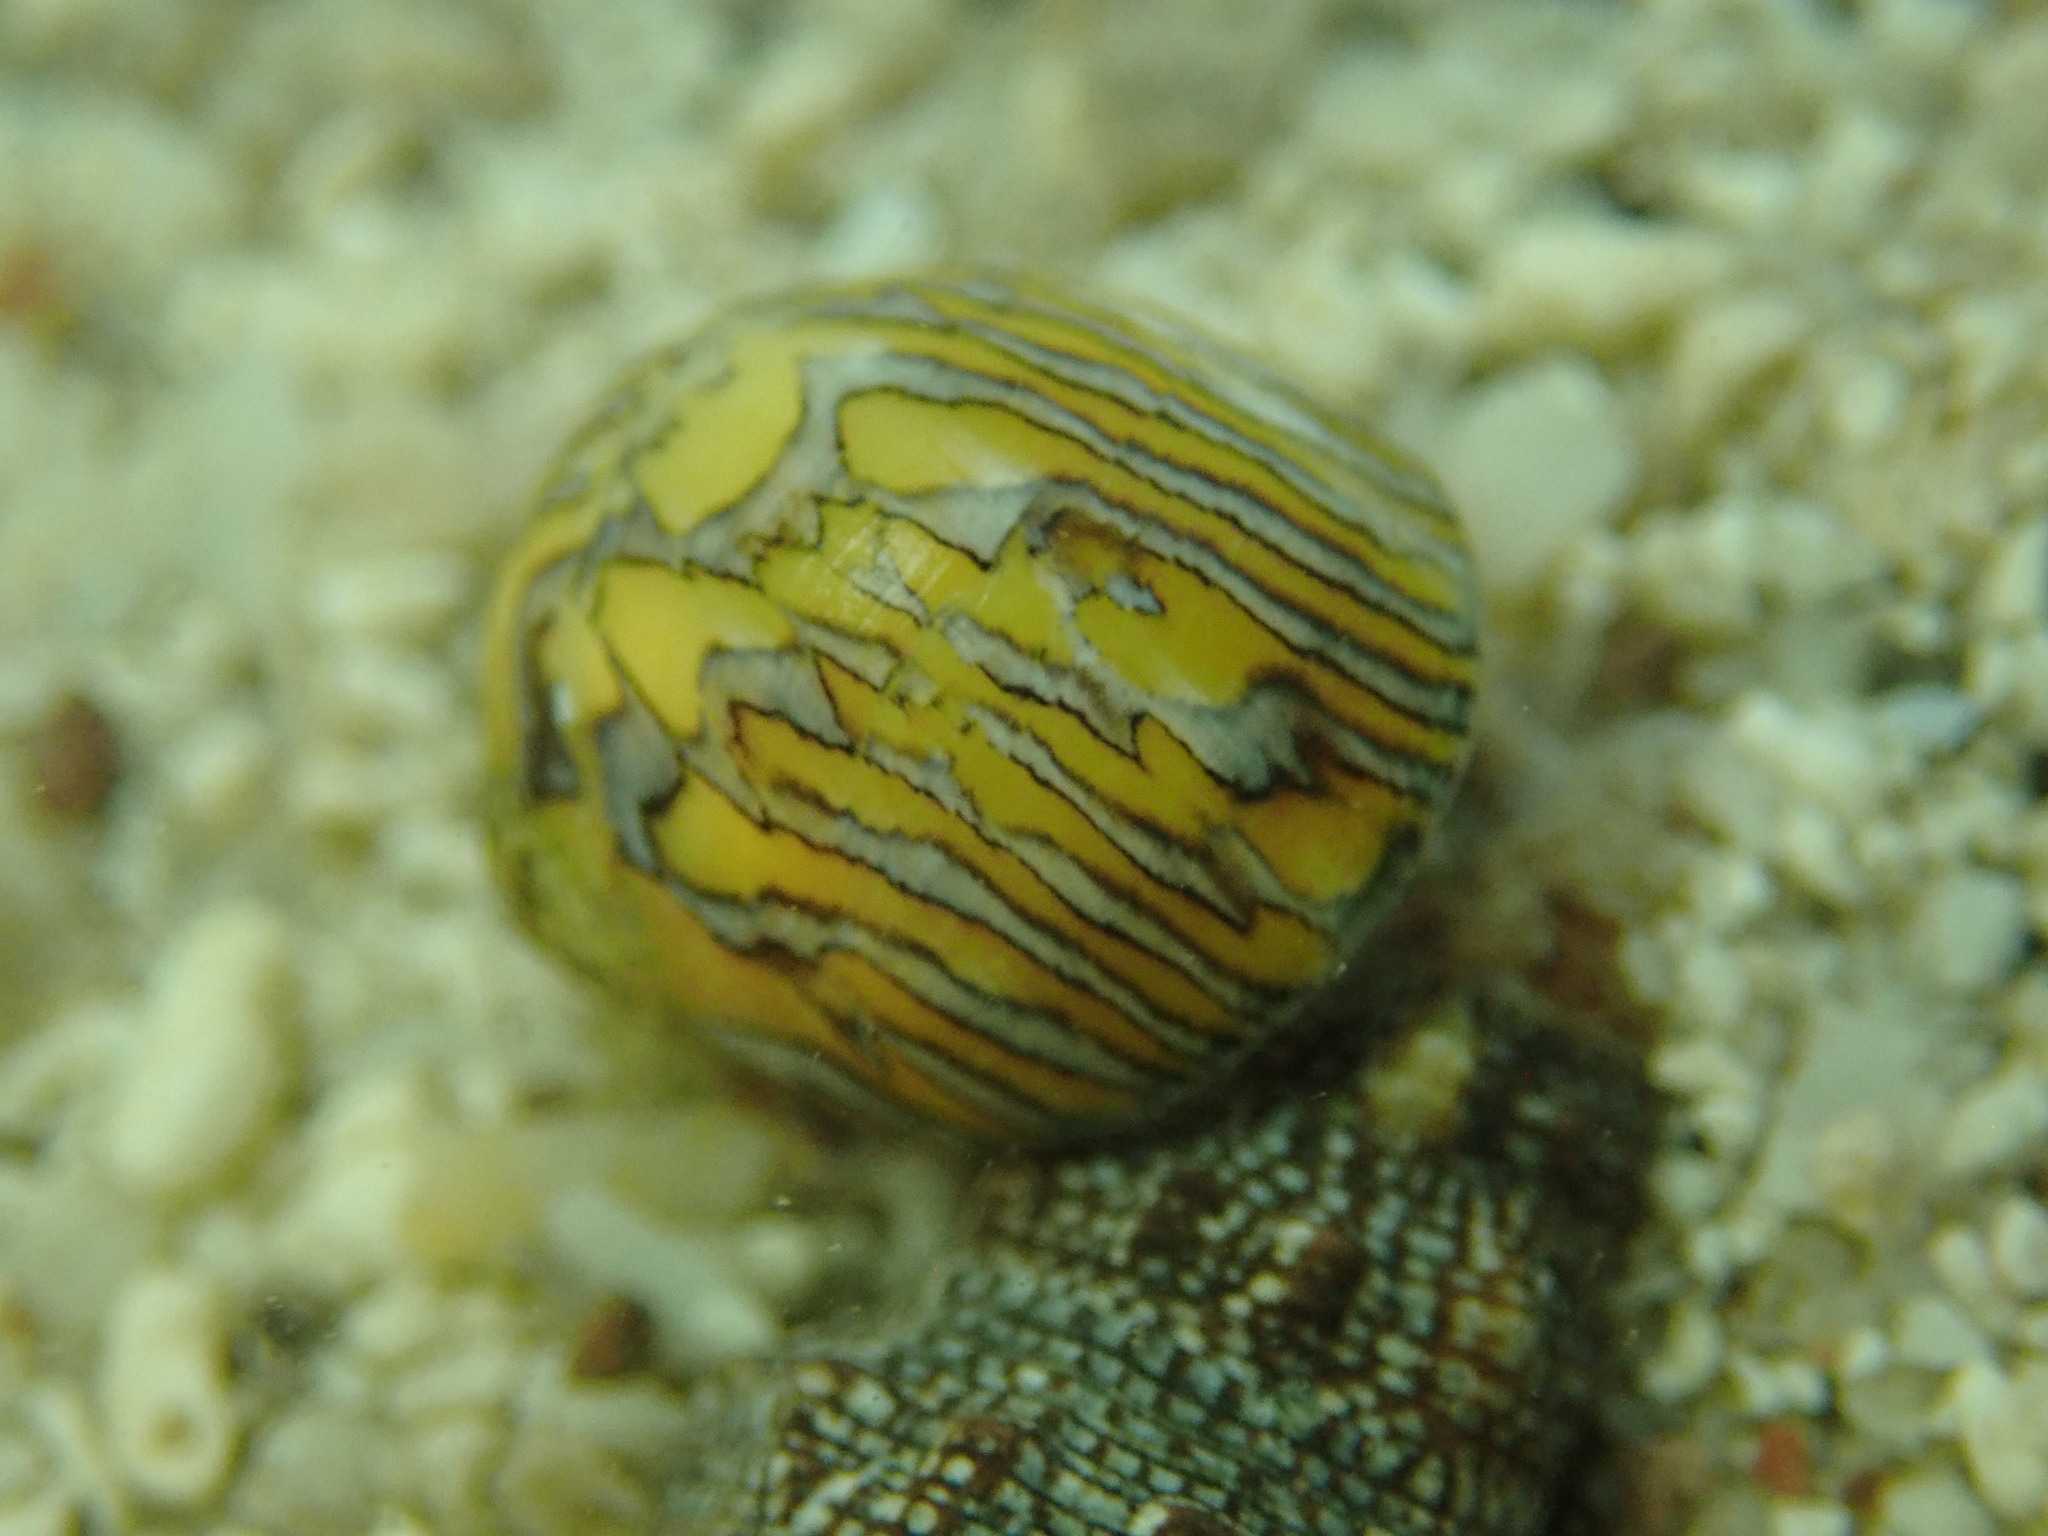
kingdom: Animalia
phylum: Mollusca
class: Gastropoda
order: Cycloneritida
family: Neritidae
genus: Vitta
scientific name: Vitta luteofasciata
